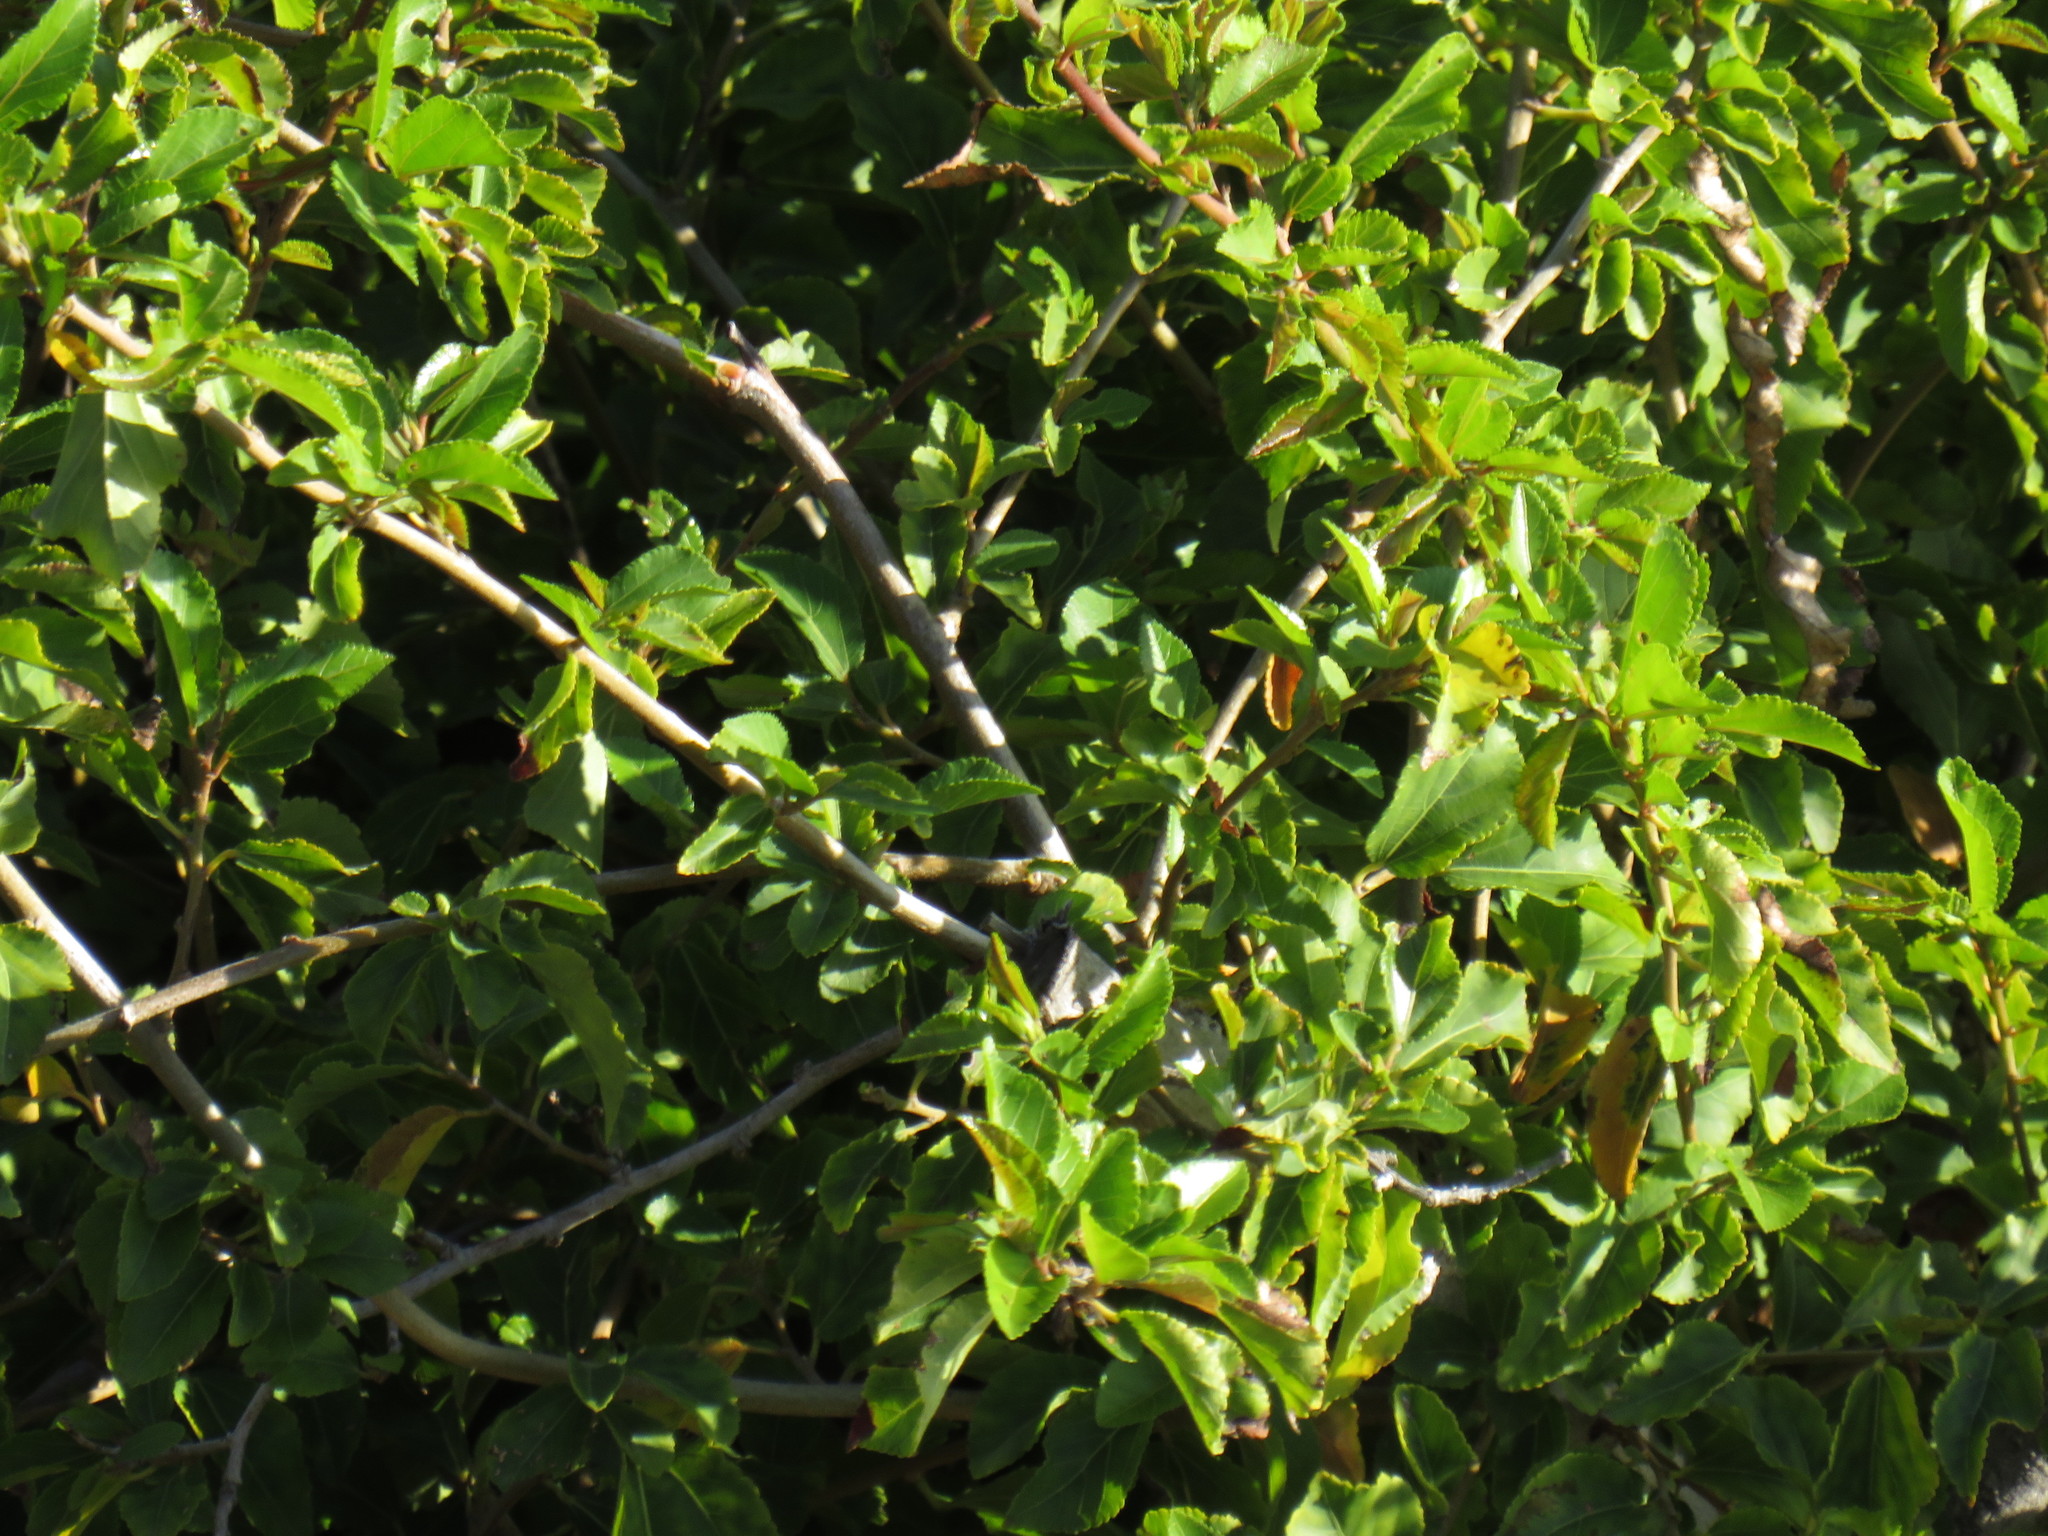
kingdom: Plantae
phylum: Tracheophyta
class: Magnoliopsida
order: Malvales
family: Malvaceae
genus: Grewia
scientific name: Grewia occidentalis
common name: Crossberry
